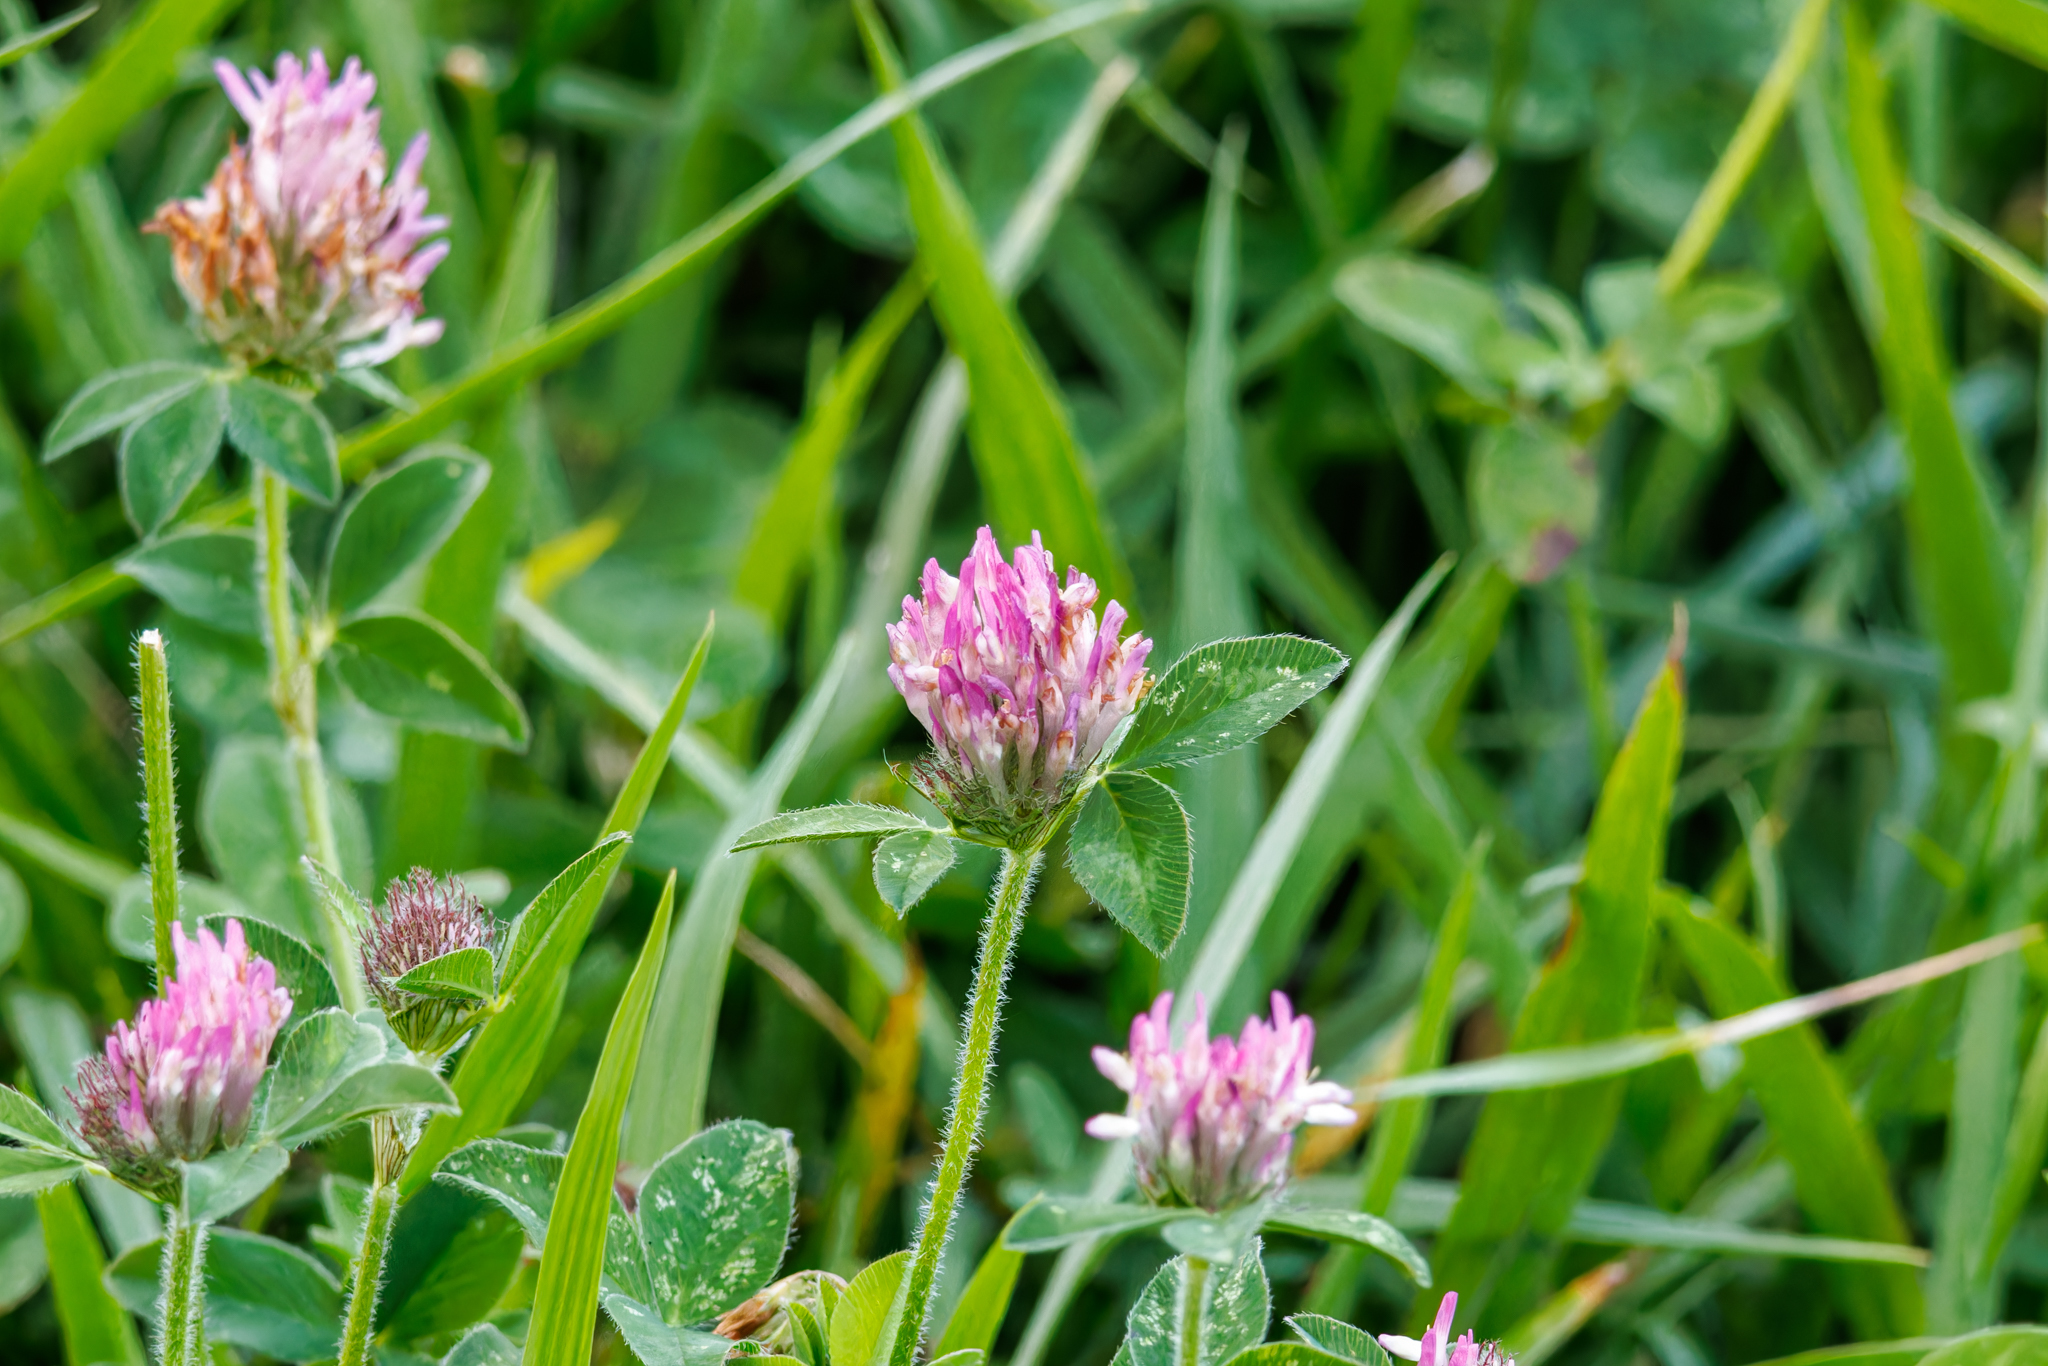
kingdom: Plantae
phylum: Tracheophyta
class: Magnoliopsida
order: Fabales
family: Fabaceae
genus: Trifolium
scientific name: Trifolium pratense
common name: Red clover
